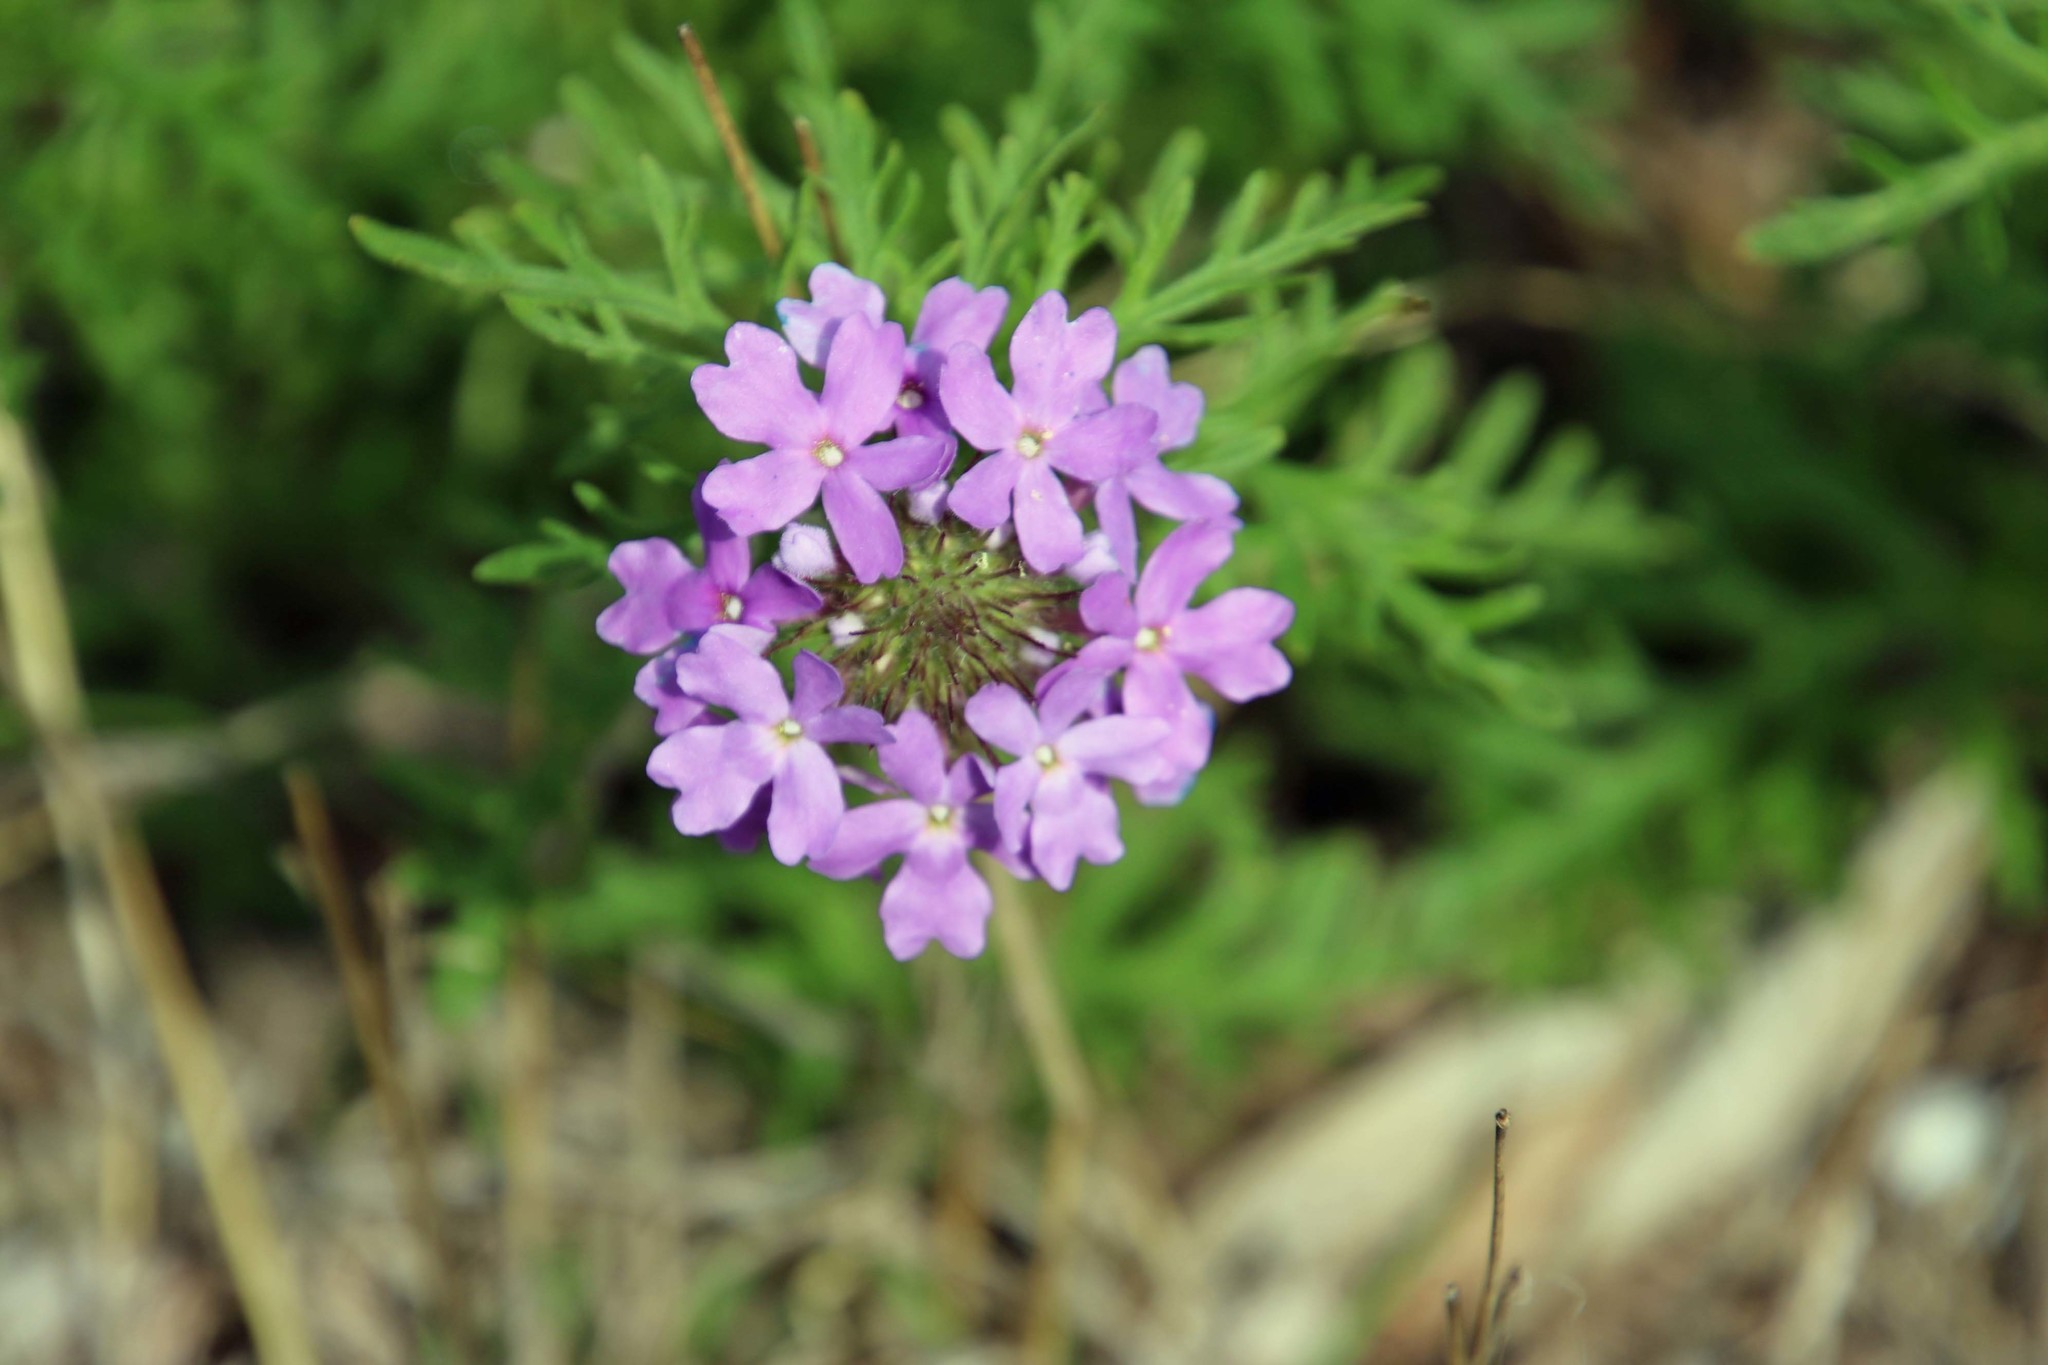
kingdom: Plantae
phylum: Tracheophyta
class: Magnoliopsida
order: Lamiales
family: Verbenaceae
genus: Verbena
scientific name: Verbena bipinnatifida
